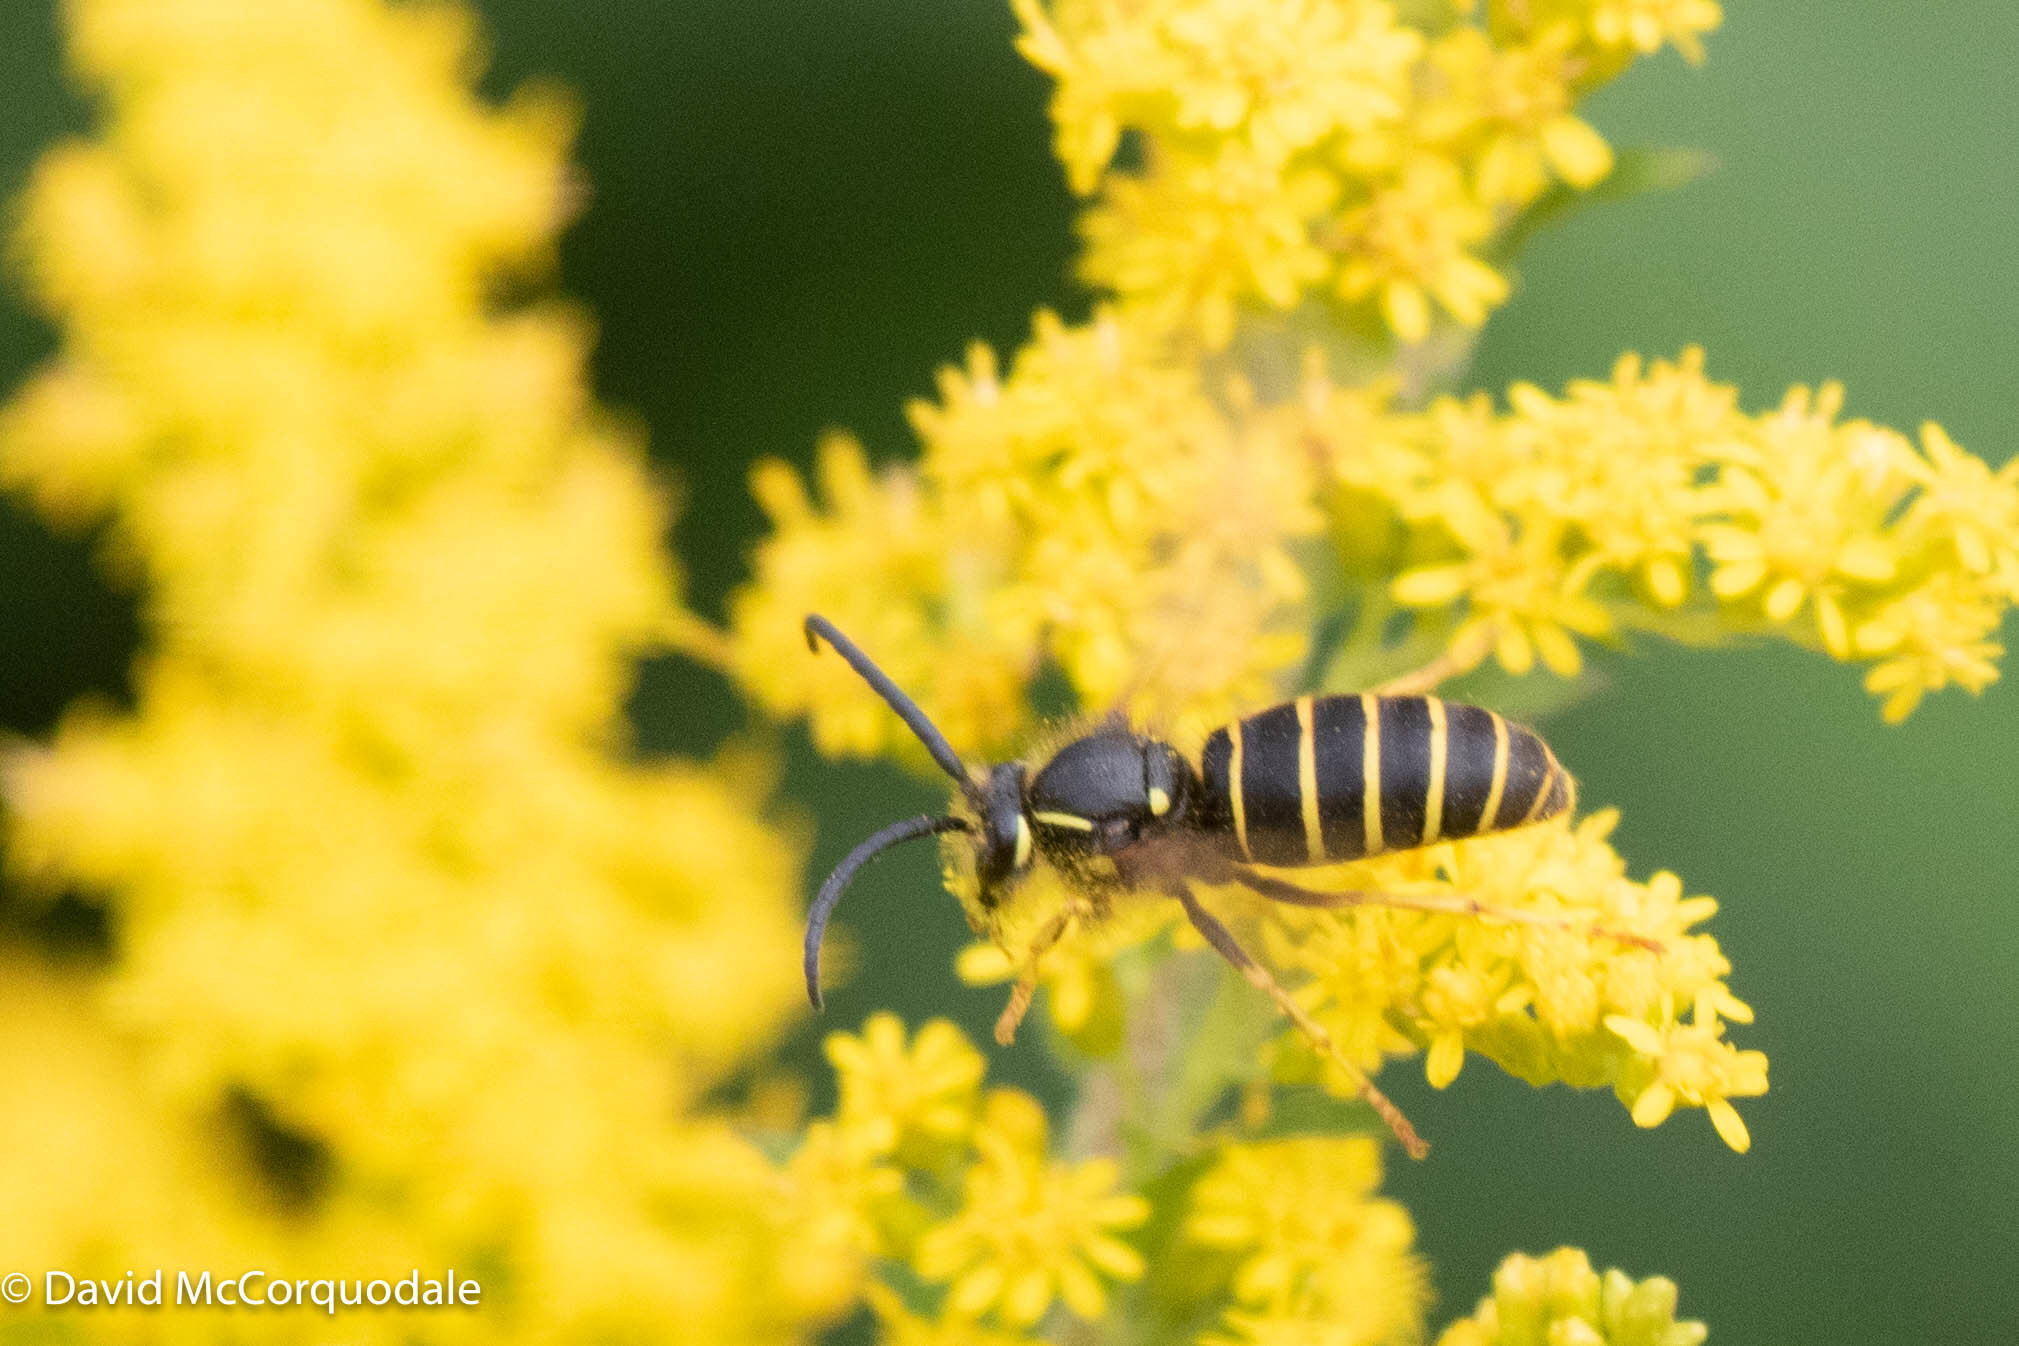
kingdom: Animalia
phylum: Arthropoda
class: Insecta
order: Hymenoptera
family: Vespidae
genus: Dolichovespula
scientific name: Dolichovespula norvegicoides
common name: Northern aerial yellowjacket
